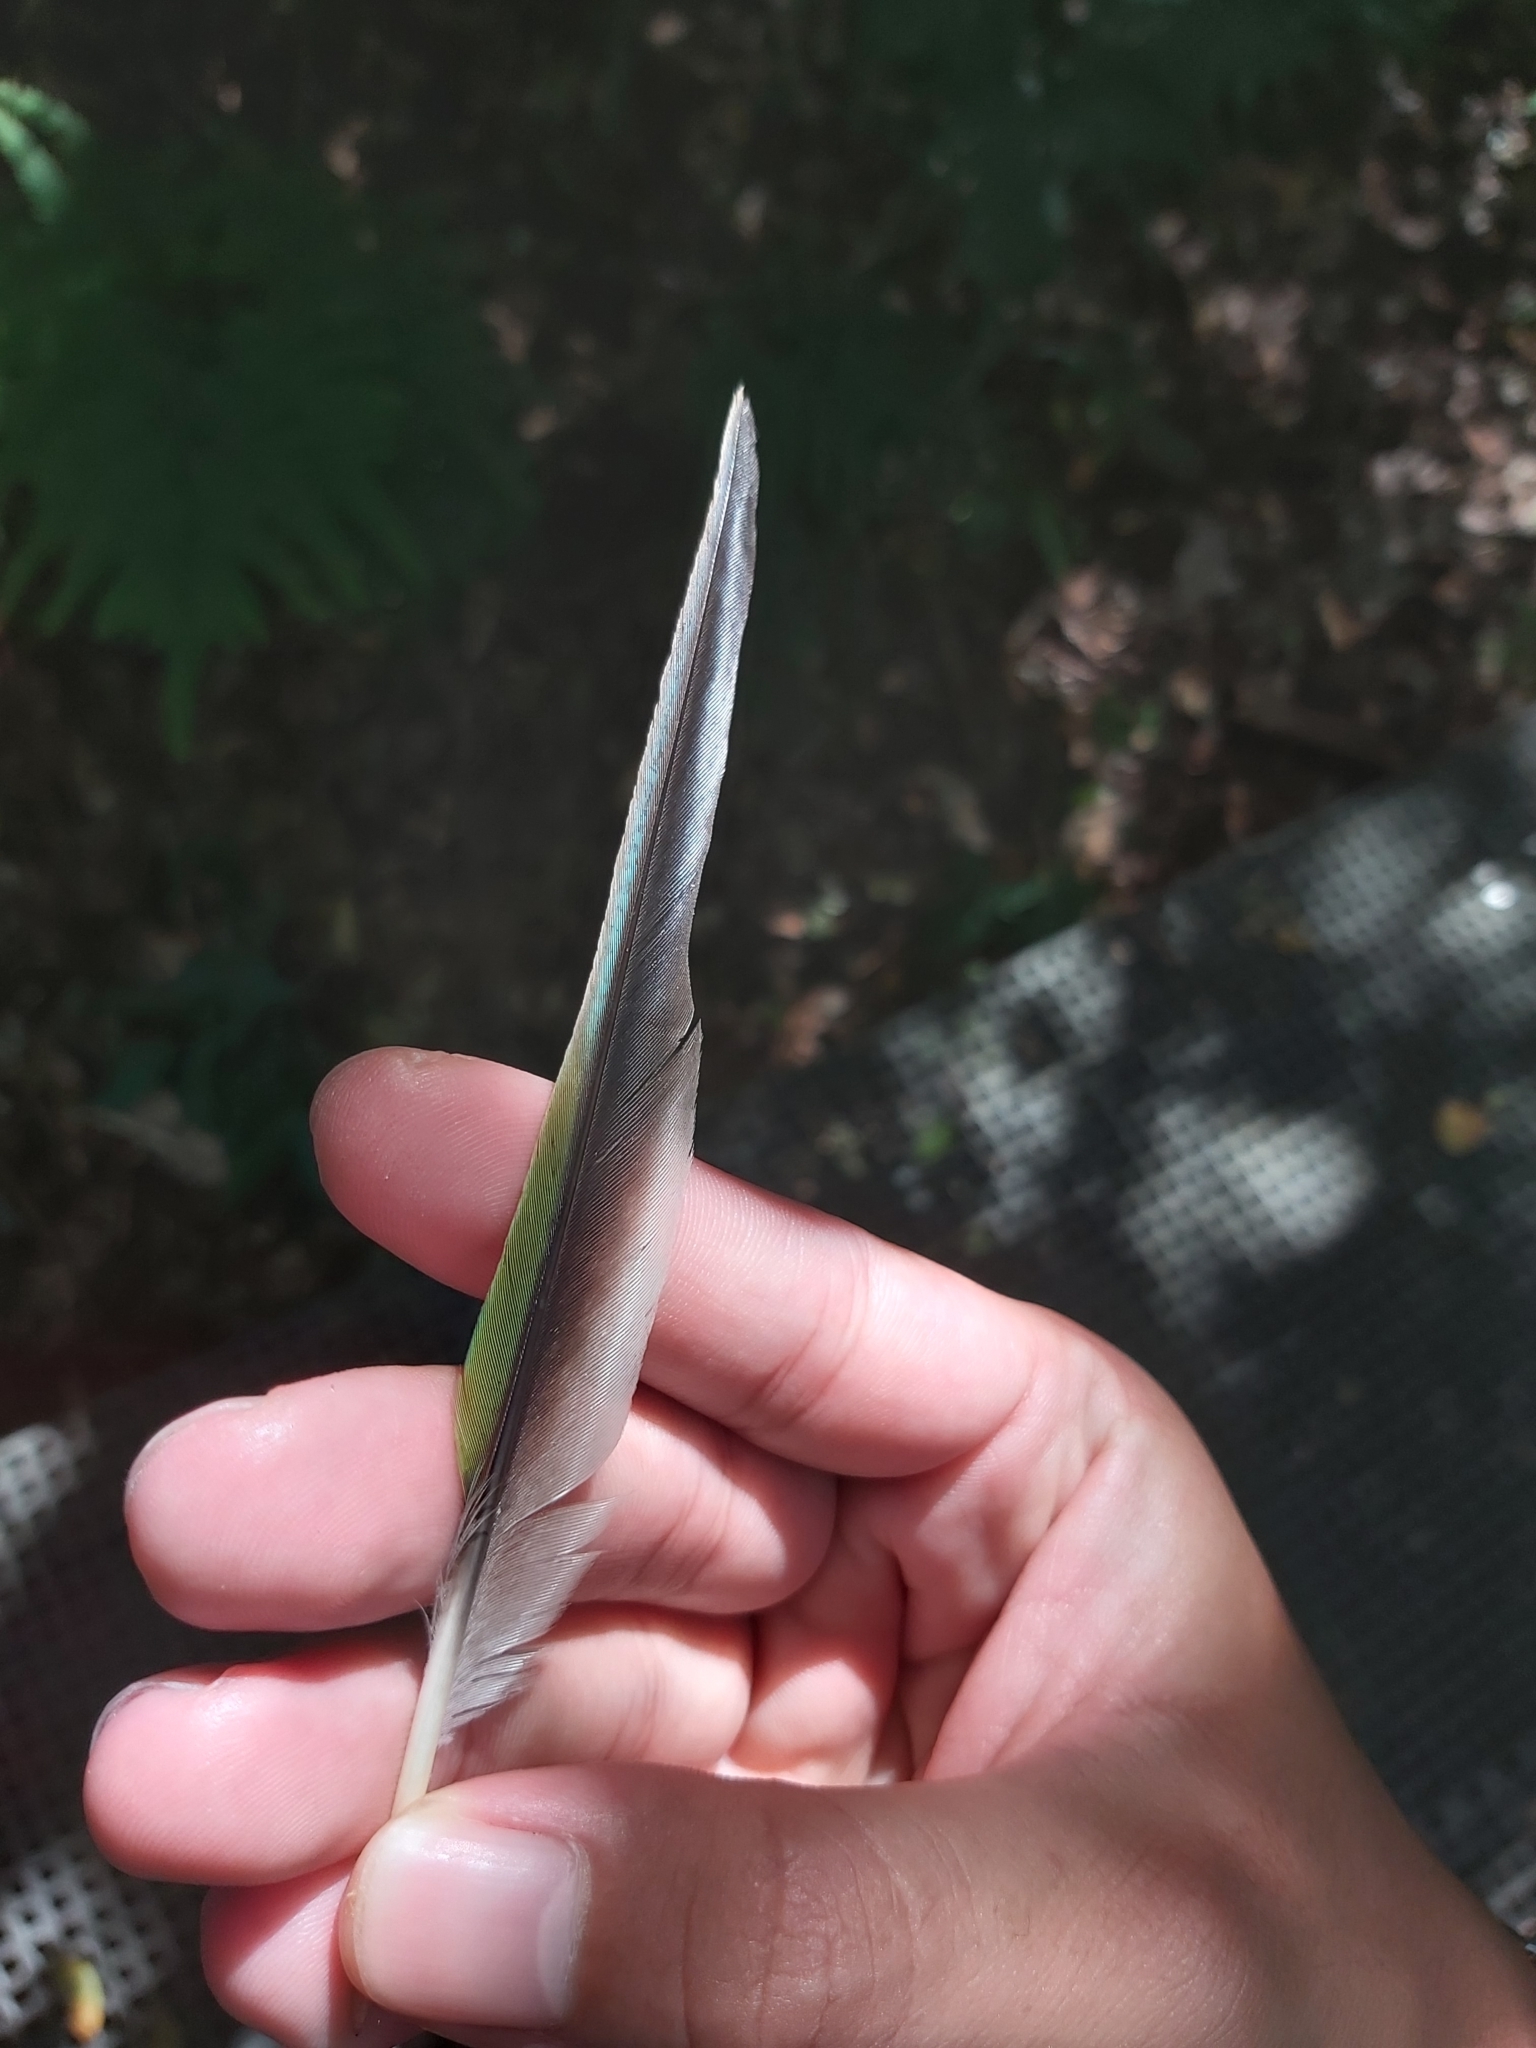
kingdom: Animalia
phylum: Chordata
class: Aves
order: Passeriformes
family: Ptilonorhynchidae
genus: Ailuroedus
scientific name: Ailuroedus crassirostris
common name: Green catbird
